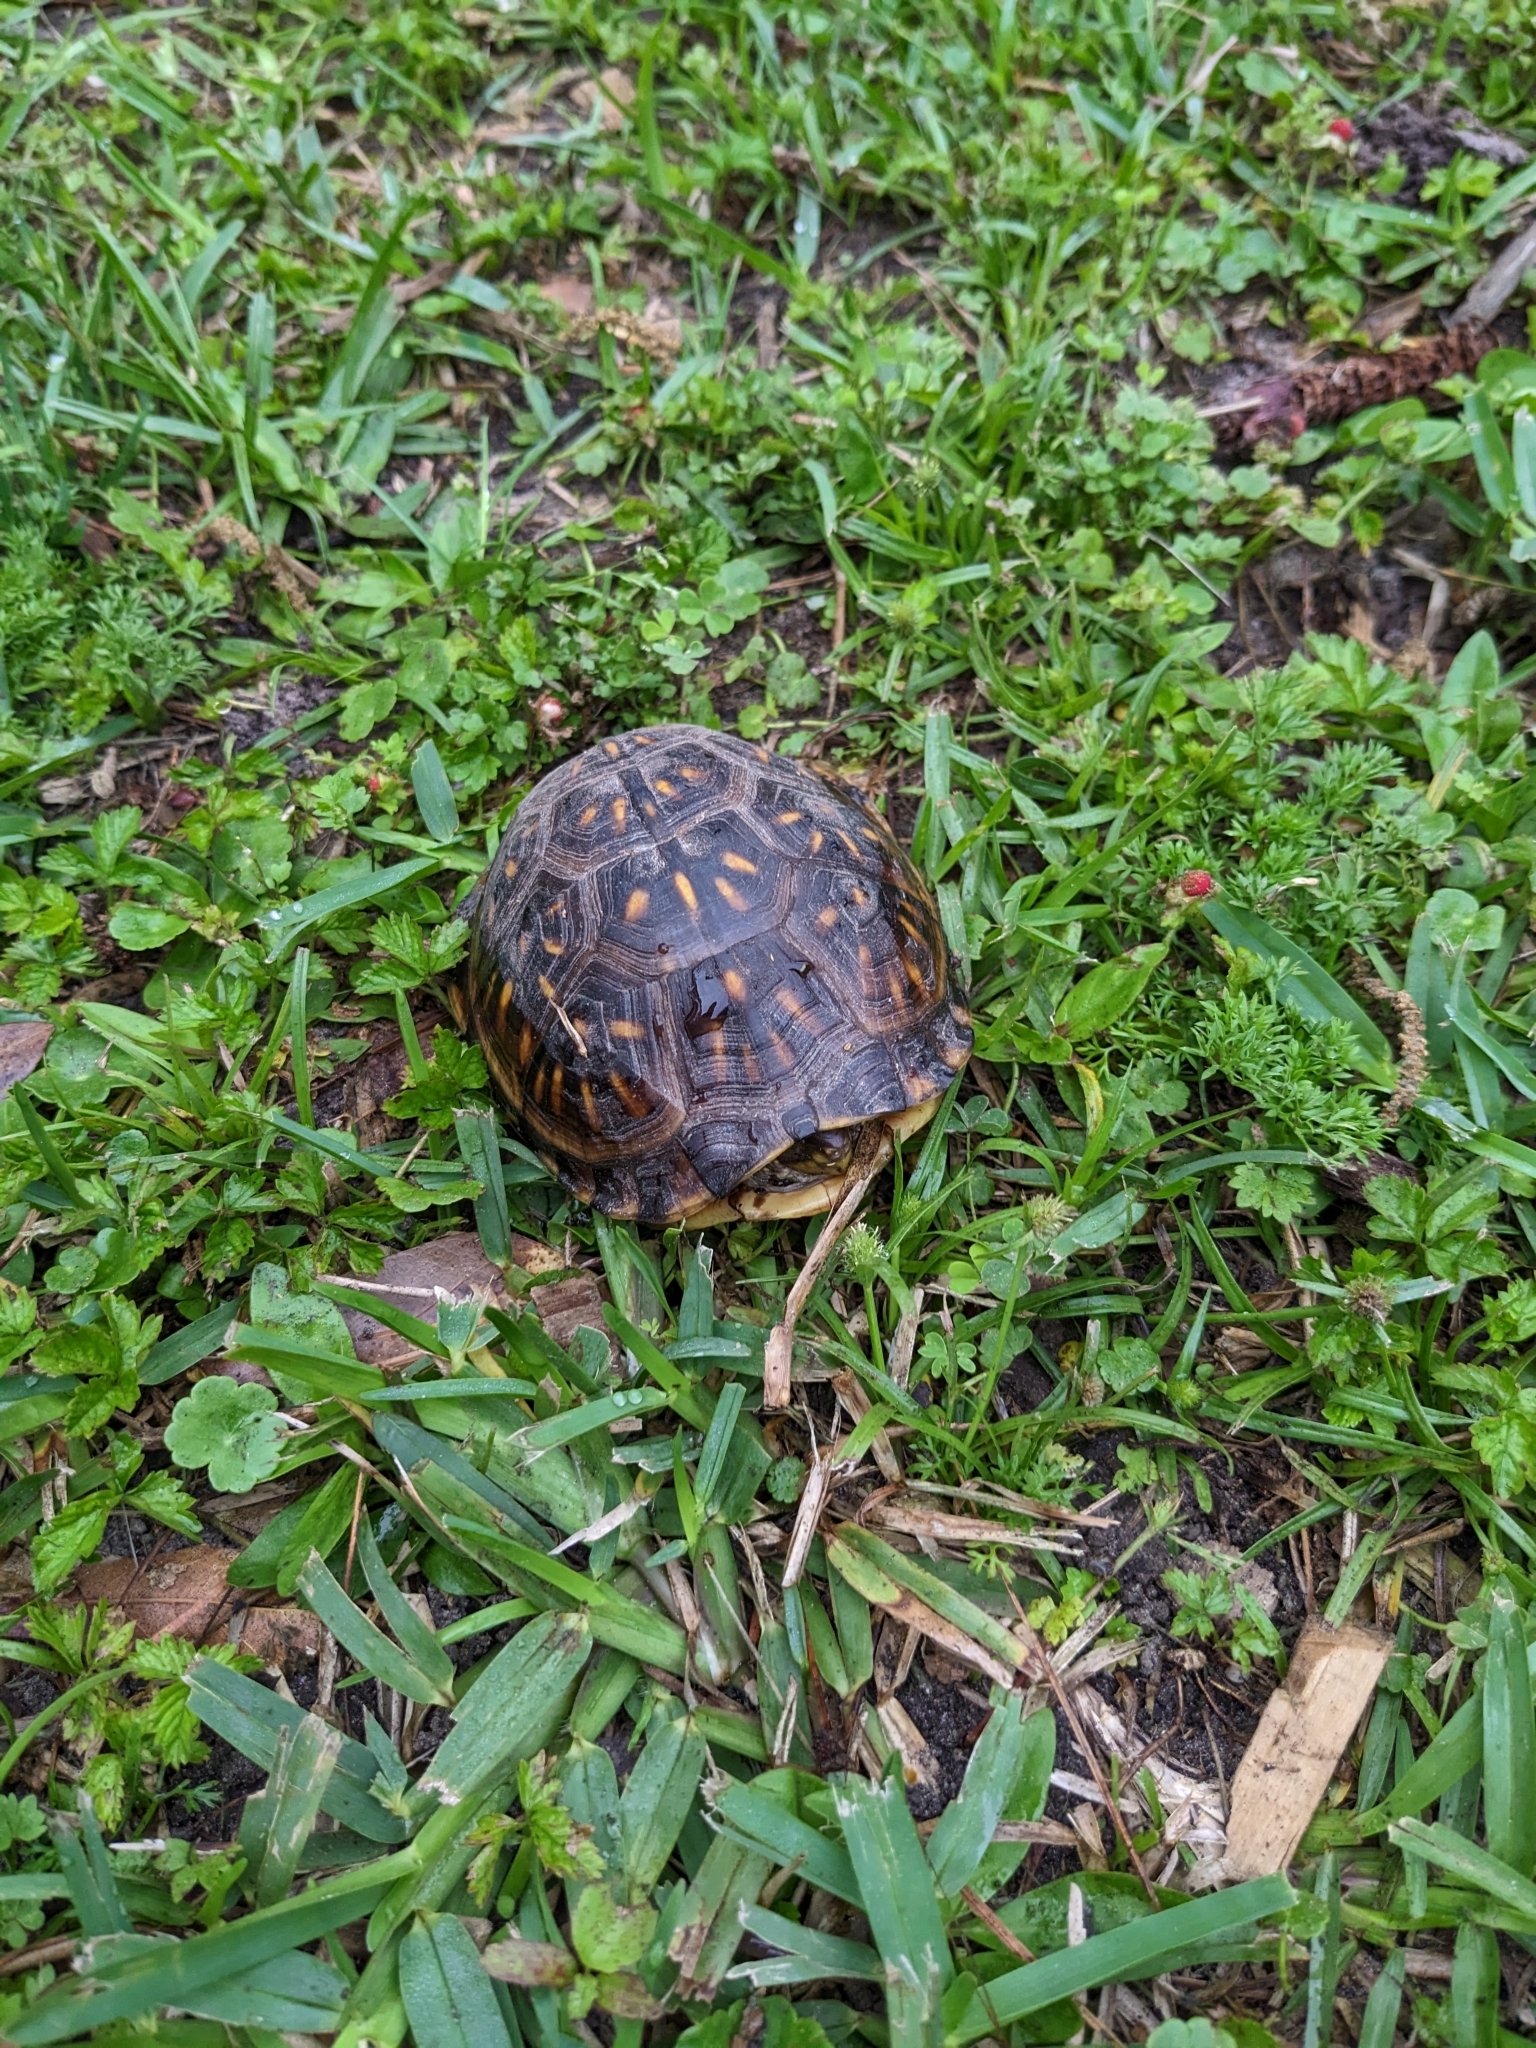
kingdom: Animalia
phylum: Chordata
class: Testudines
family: Emydidae
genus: Terrapene
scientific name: Terrapene carolina
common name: Common box turtle
